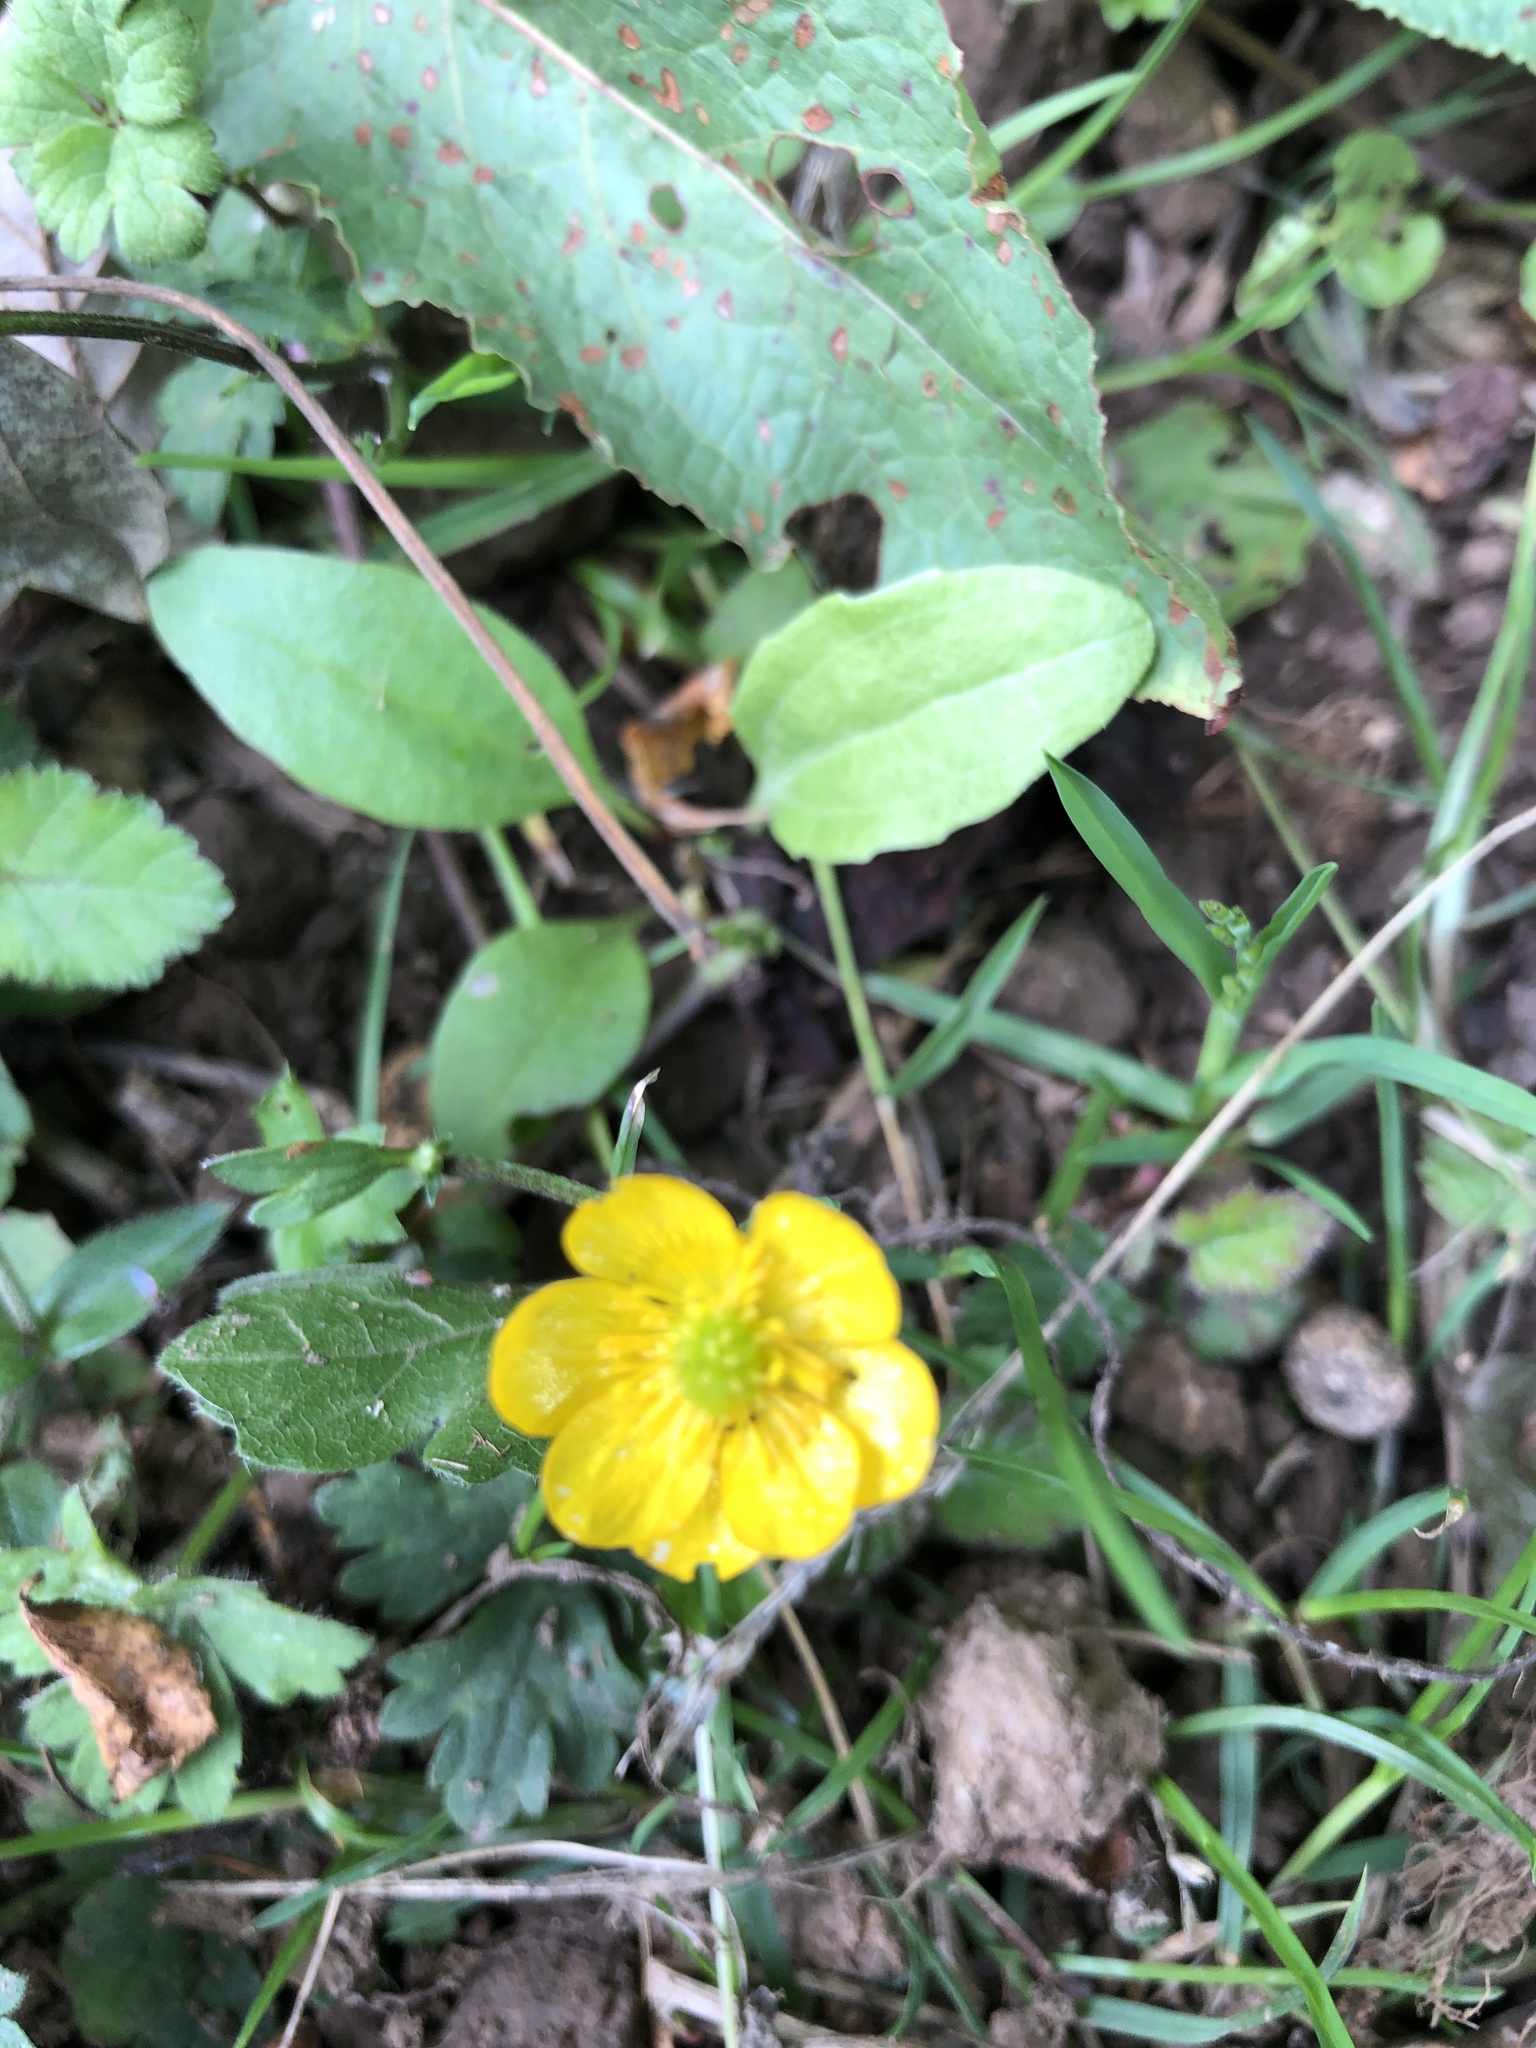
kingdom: Plantae
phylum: Tracheophyta
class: Magnoliopsida
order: Ranunculales
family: Ranunculaceae
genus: Ranunculus
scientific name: Ranunculus repens
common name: Creeping buttercup
